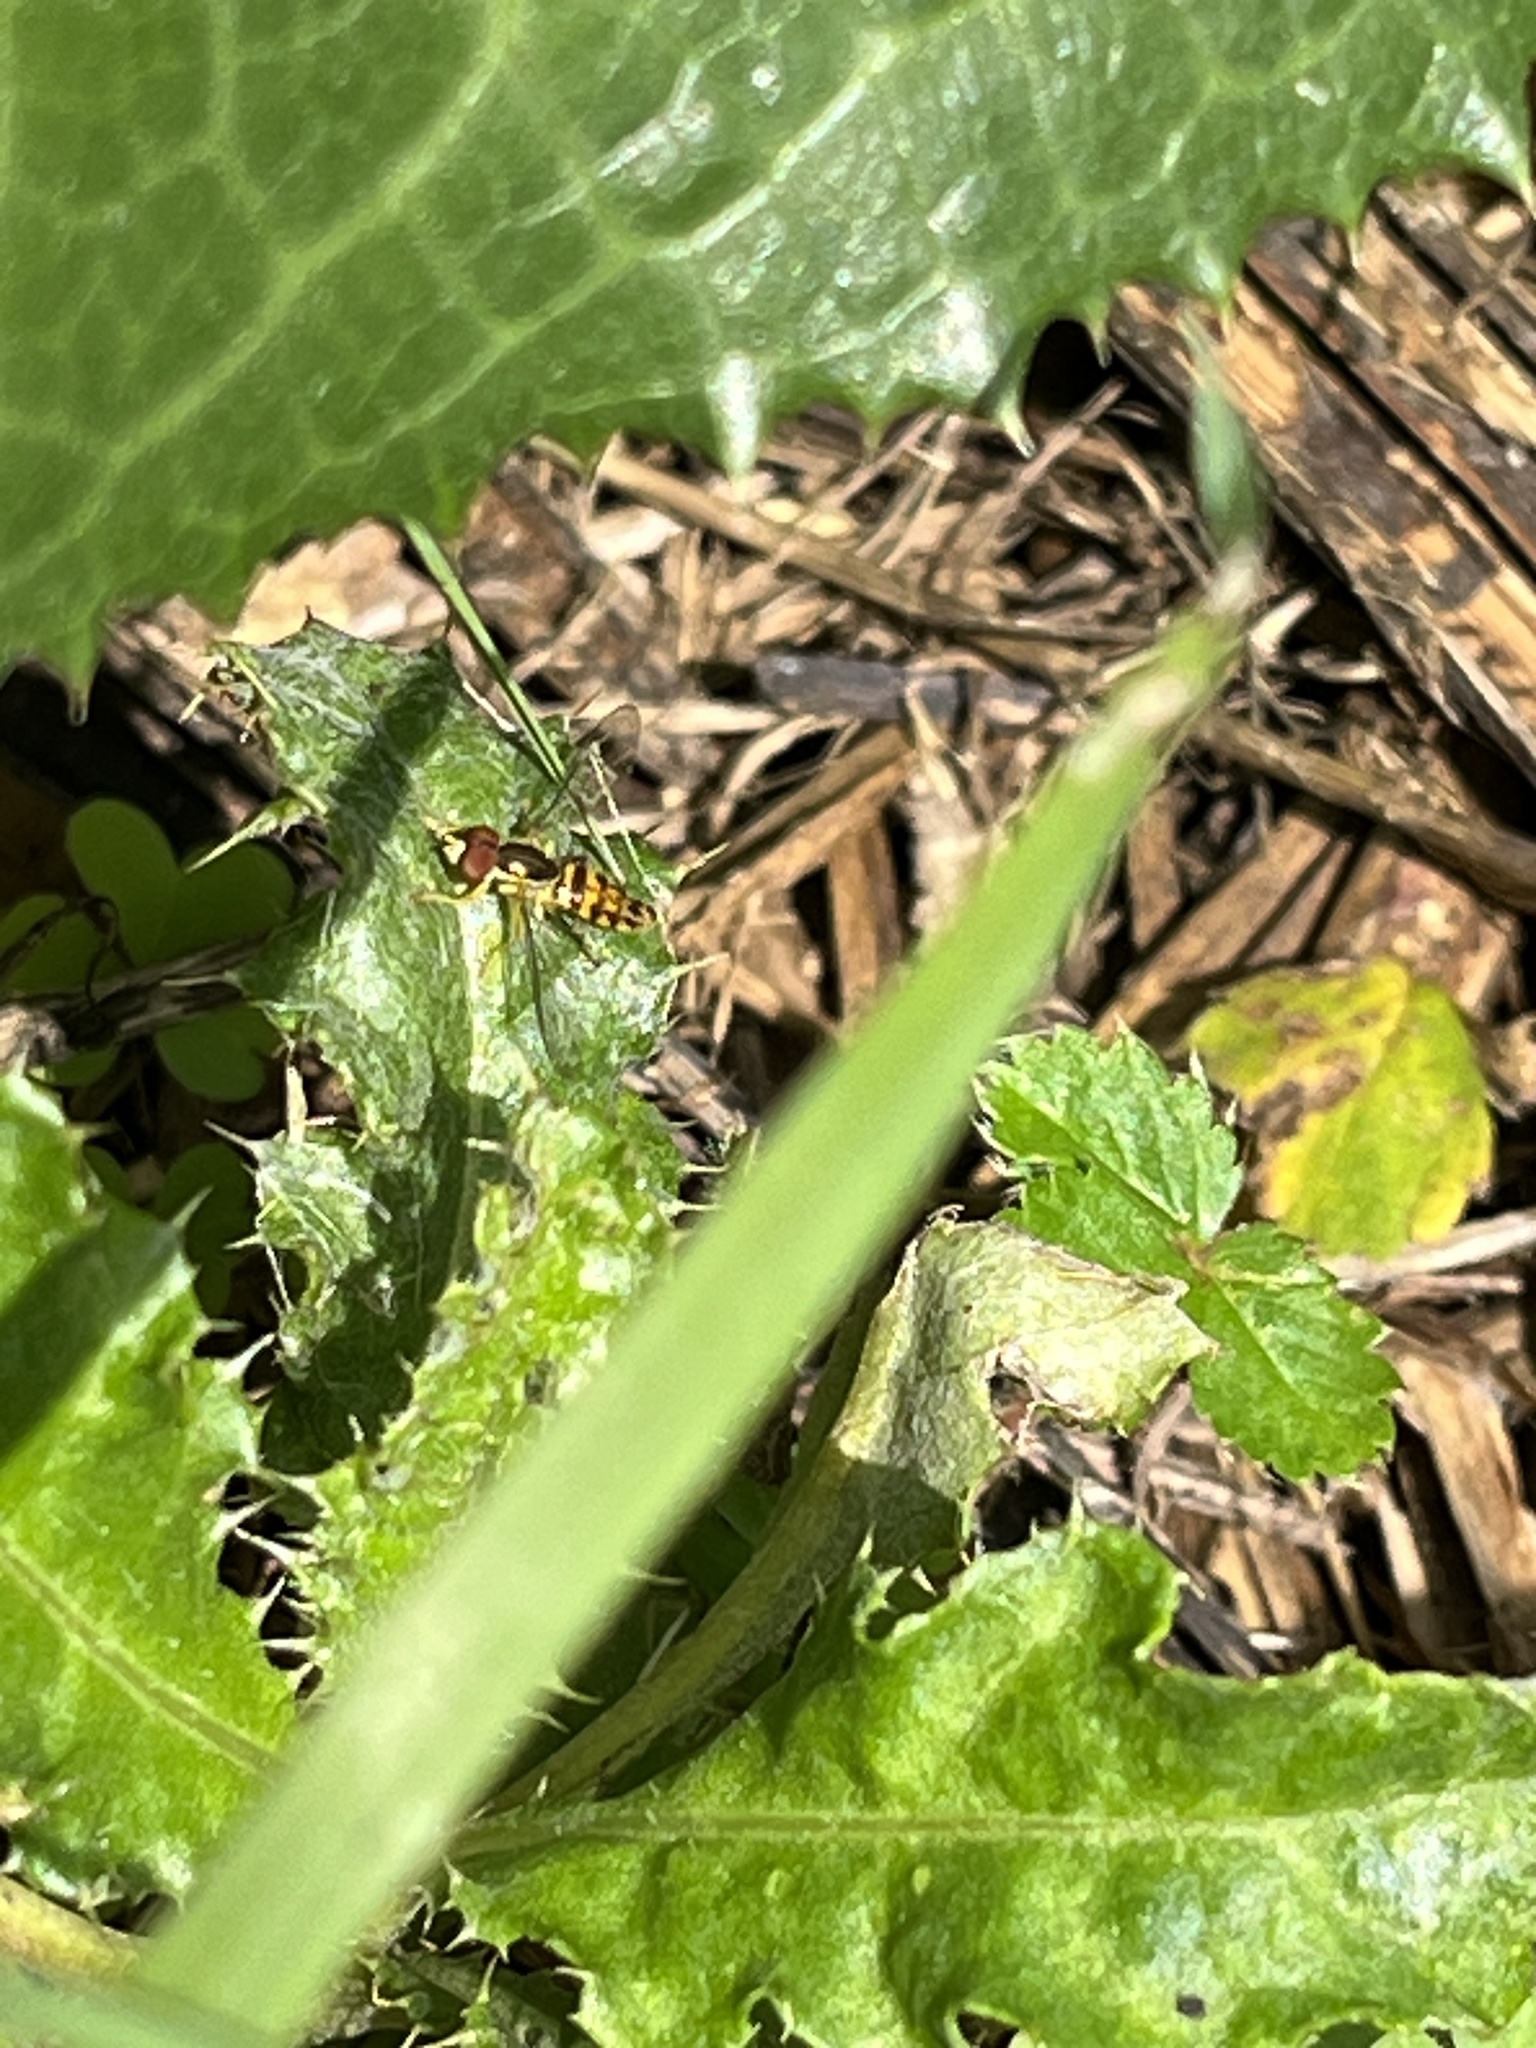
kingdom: Animalia
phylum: Arthropoda
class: Insecta
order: Diptera
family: Syrphidae
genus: Toxomerus
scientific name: Toxomerus geminatus
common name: Eastern calligrapher
